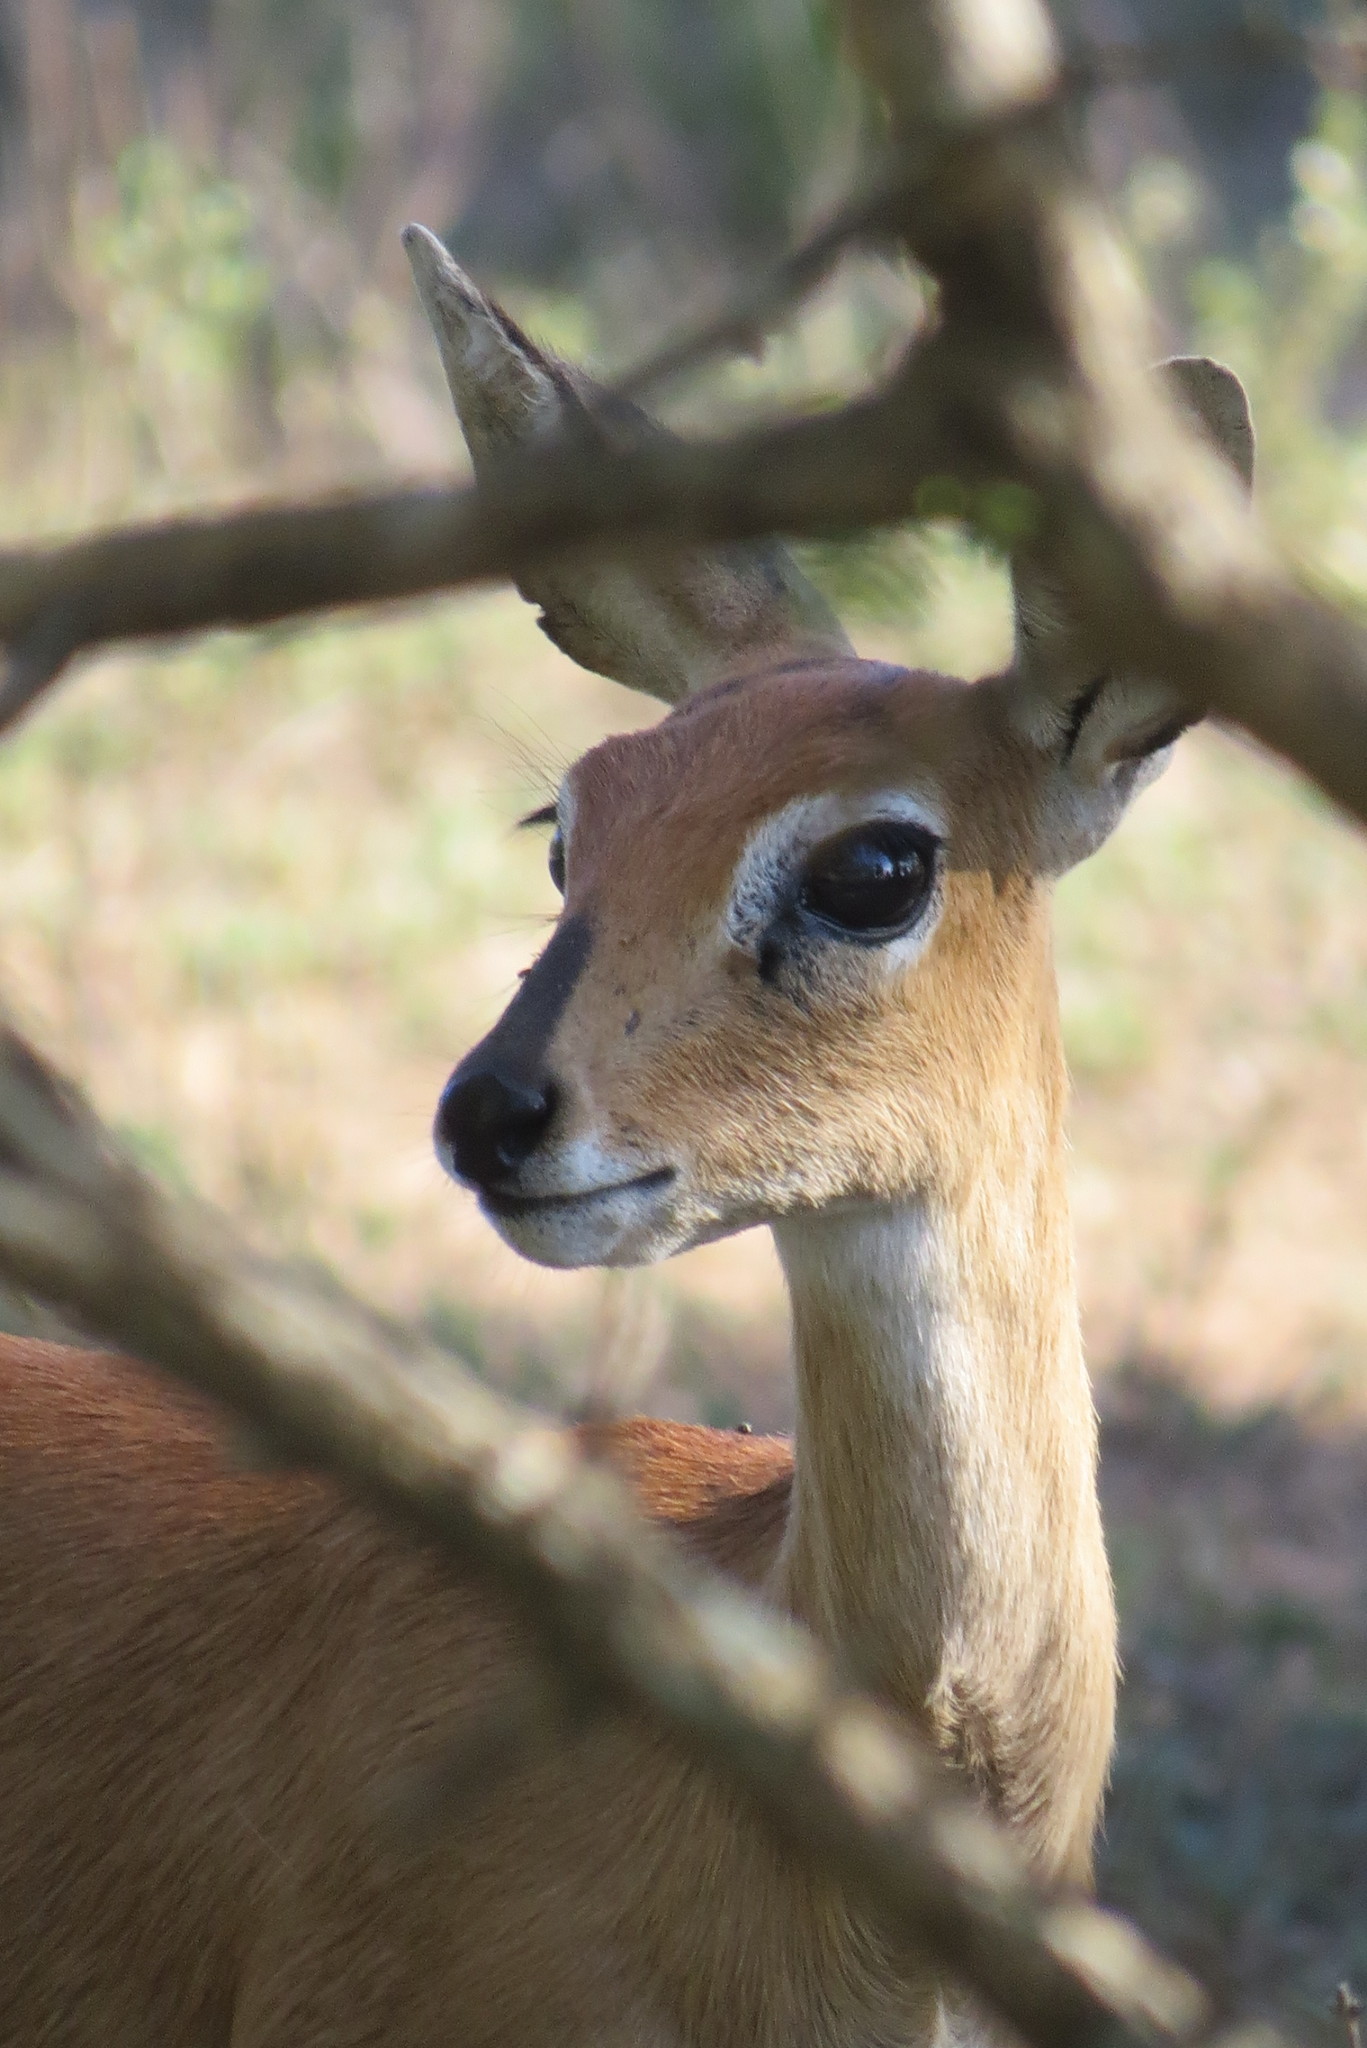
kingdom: Animalia
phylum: Chordata
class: Mammalia
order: Artiodactyla
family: Bovidae
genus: Raphicerus
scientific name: Raphicerus campestris
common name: Steenbok
